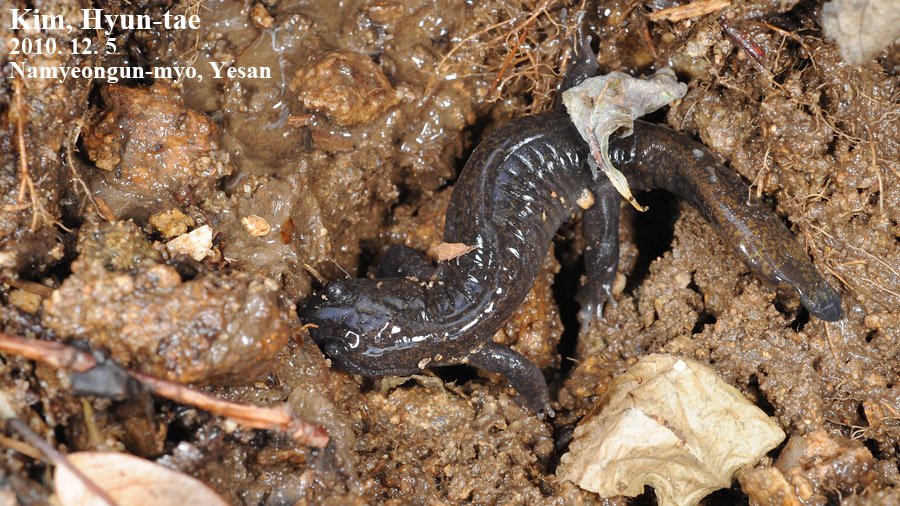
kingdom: Animalia
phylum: Chordata
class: Amphibia
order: Caudata
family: Hynobiidae
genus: Hynobius
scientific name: Hynobius leechii
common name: Gensan salamander
